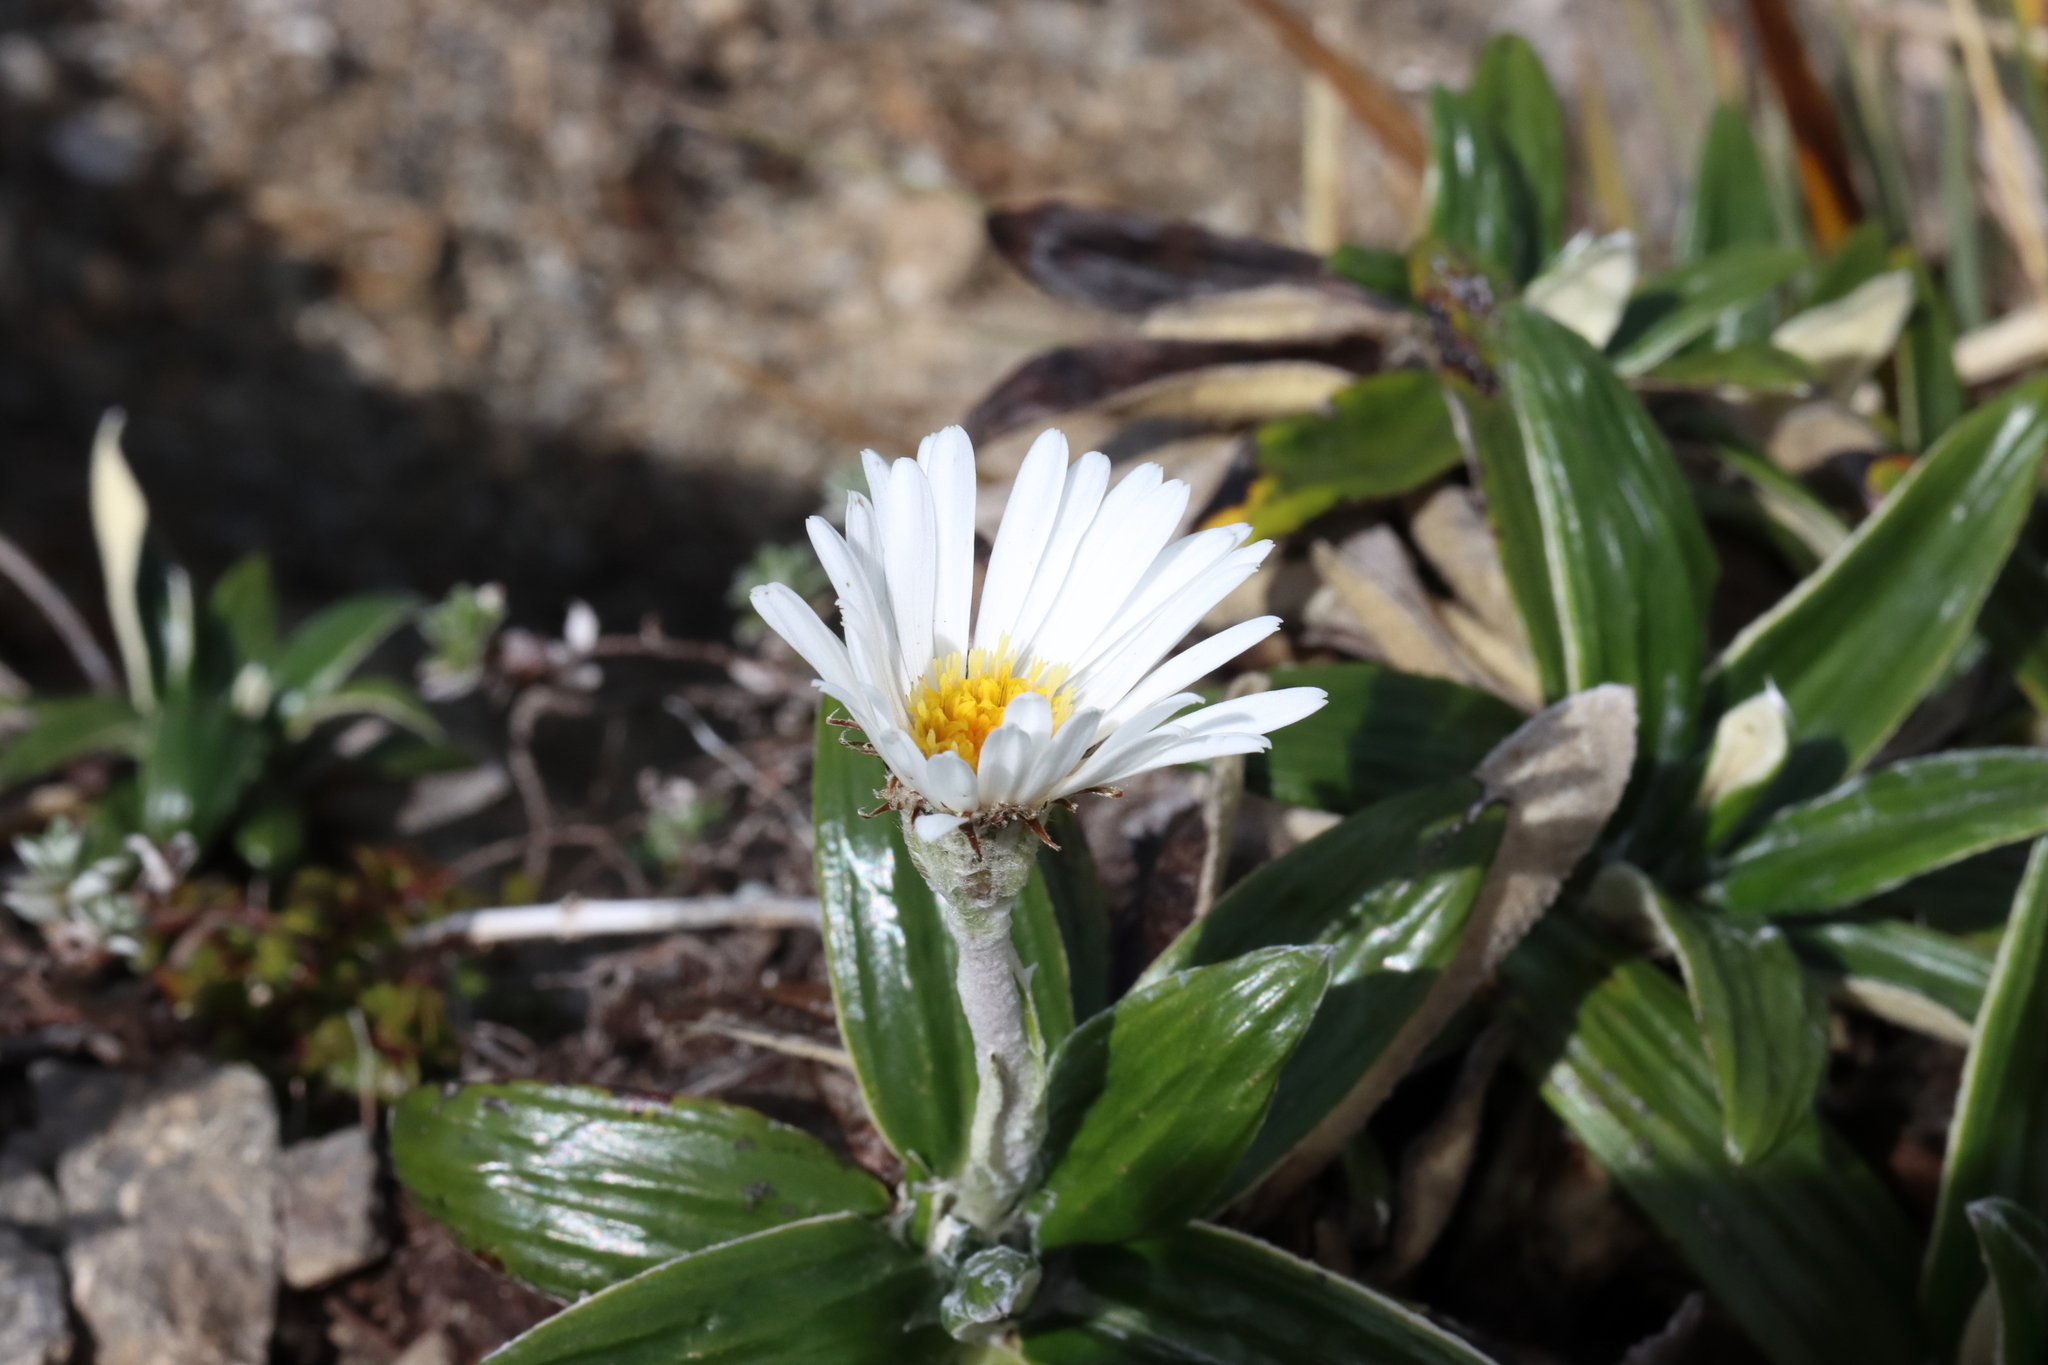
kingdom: Plantae
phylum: Tracheophyta
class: Magnoliopsida
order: Asterales
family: Asteraceae
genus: Celmisia
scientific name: Celmisia spectabilis
